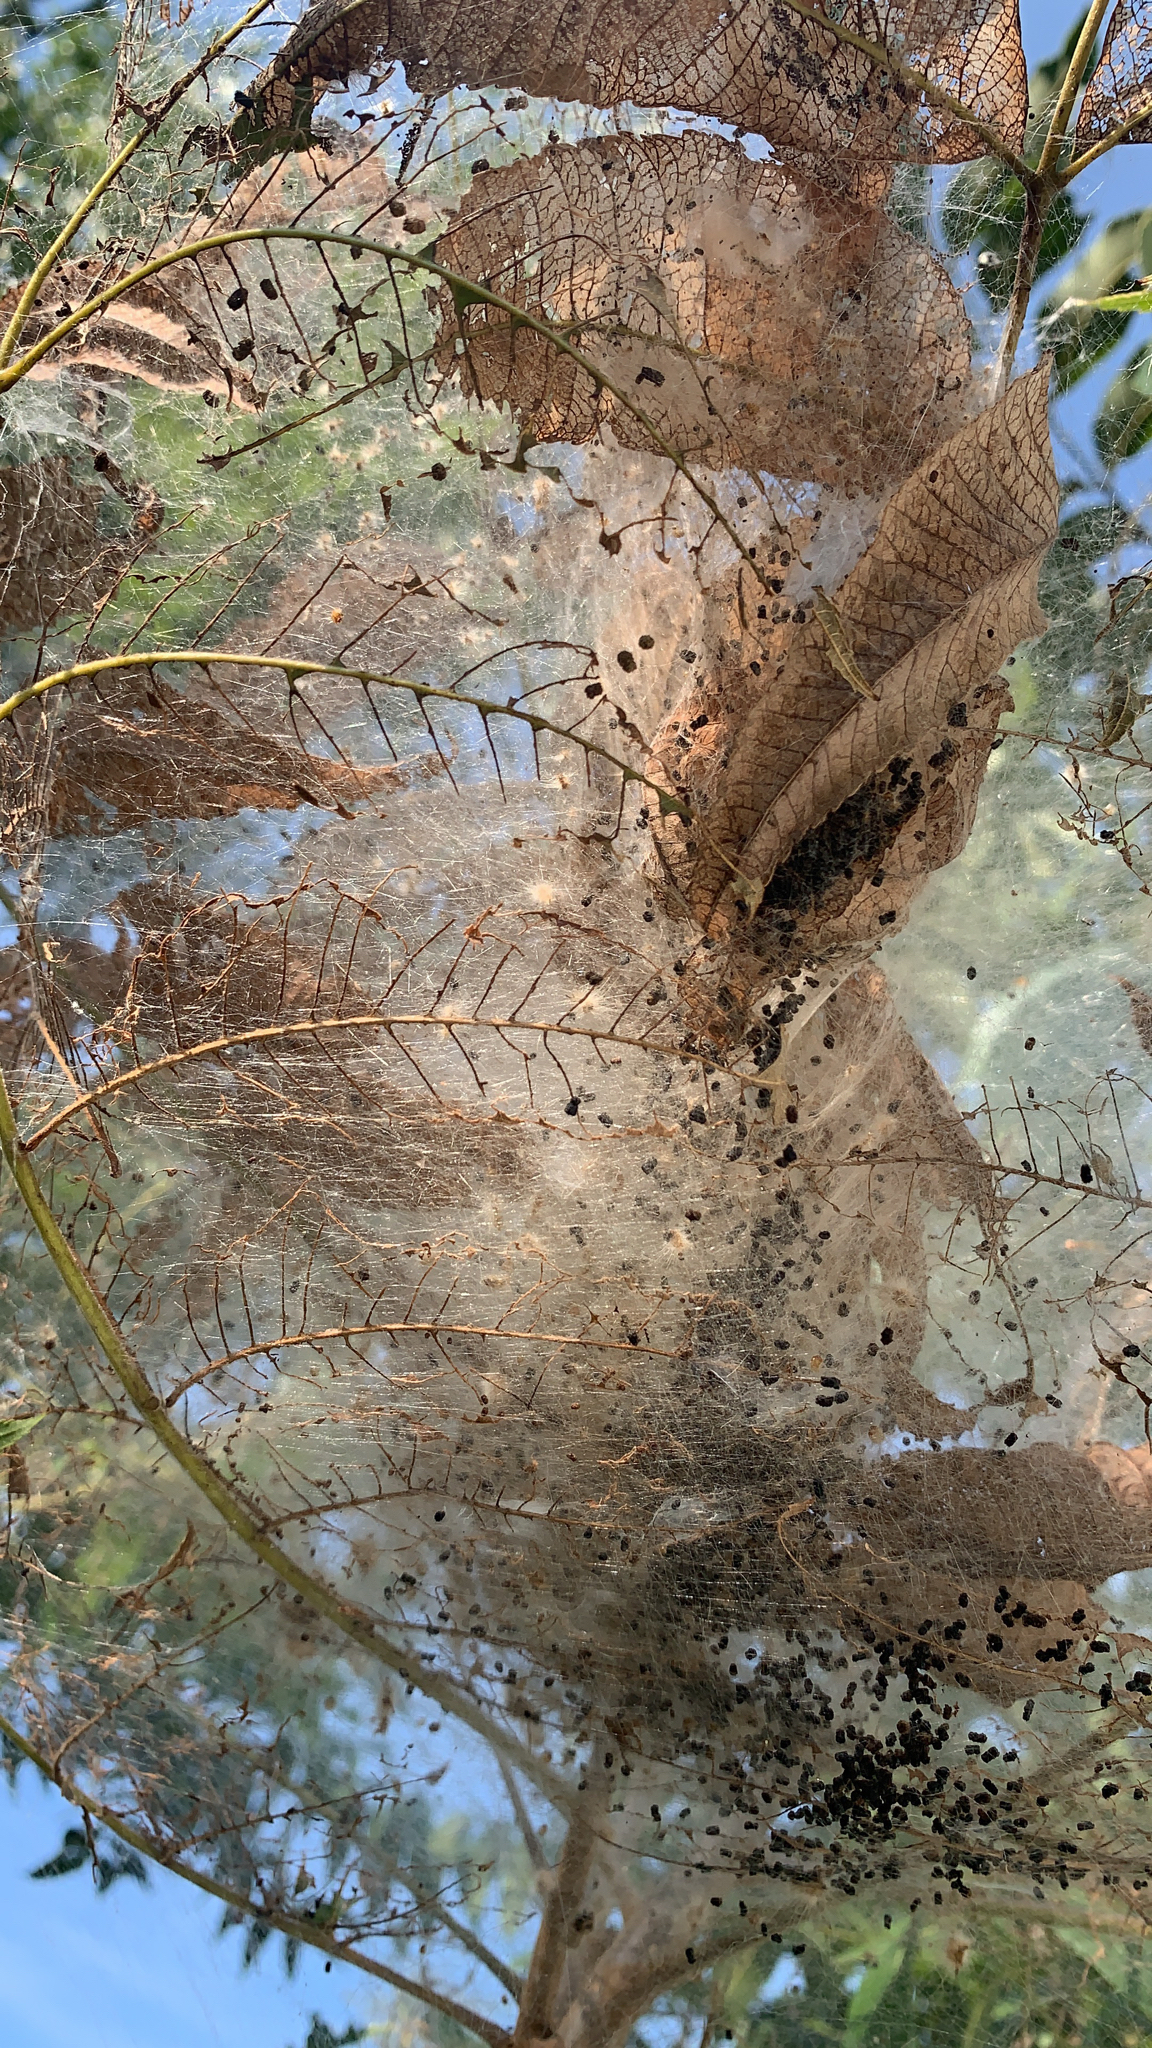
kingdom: Animalia
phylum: Arthropoda
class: Insecta
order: Lepidoptera
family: Erebidae
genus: Hyphantria
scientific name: Hyphantria cunea
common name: American white moth
